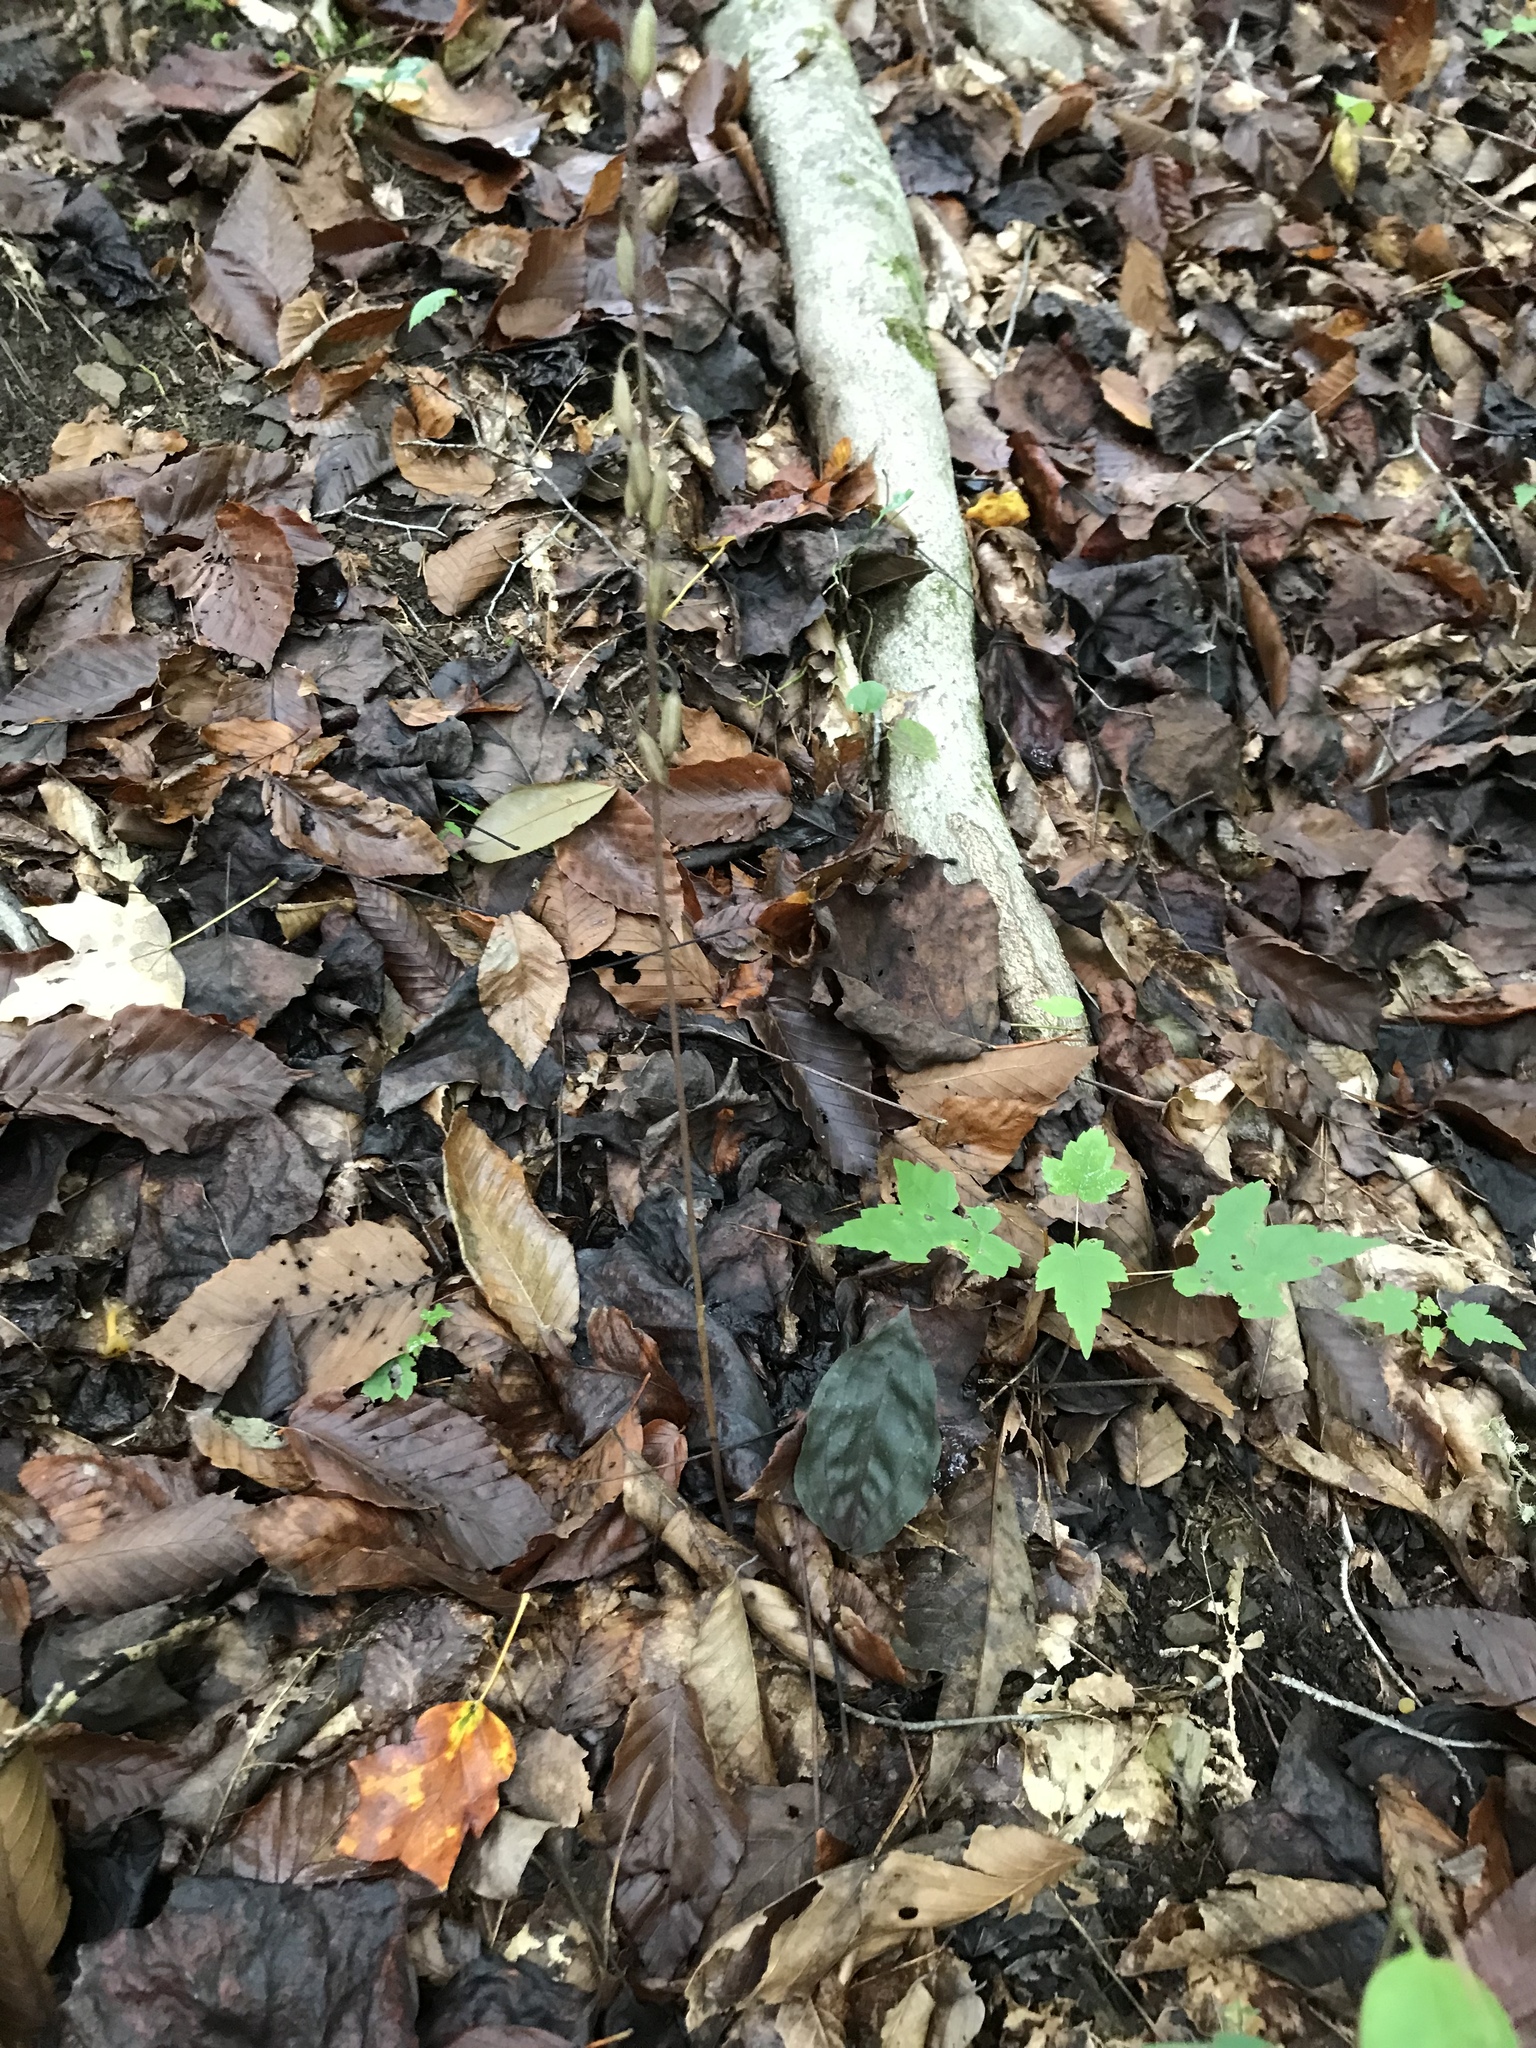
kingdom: Plantae
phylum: Tracheophyta
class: Liliopsida
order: Asparagales
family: Orchidaceae
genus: Tipularia
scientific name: Tipularia discolor
